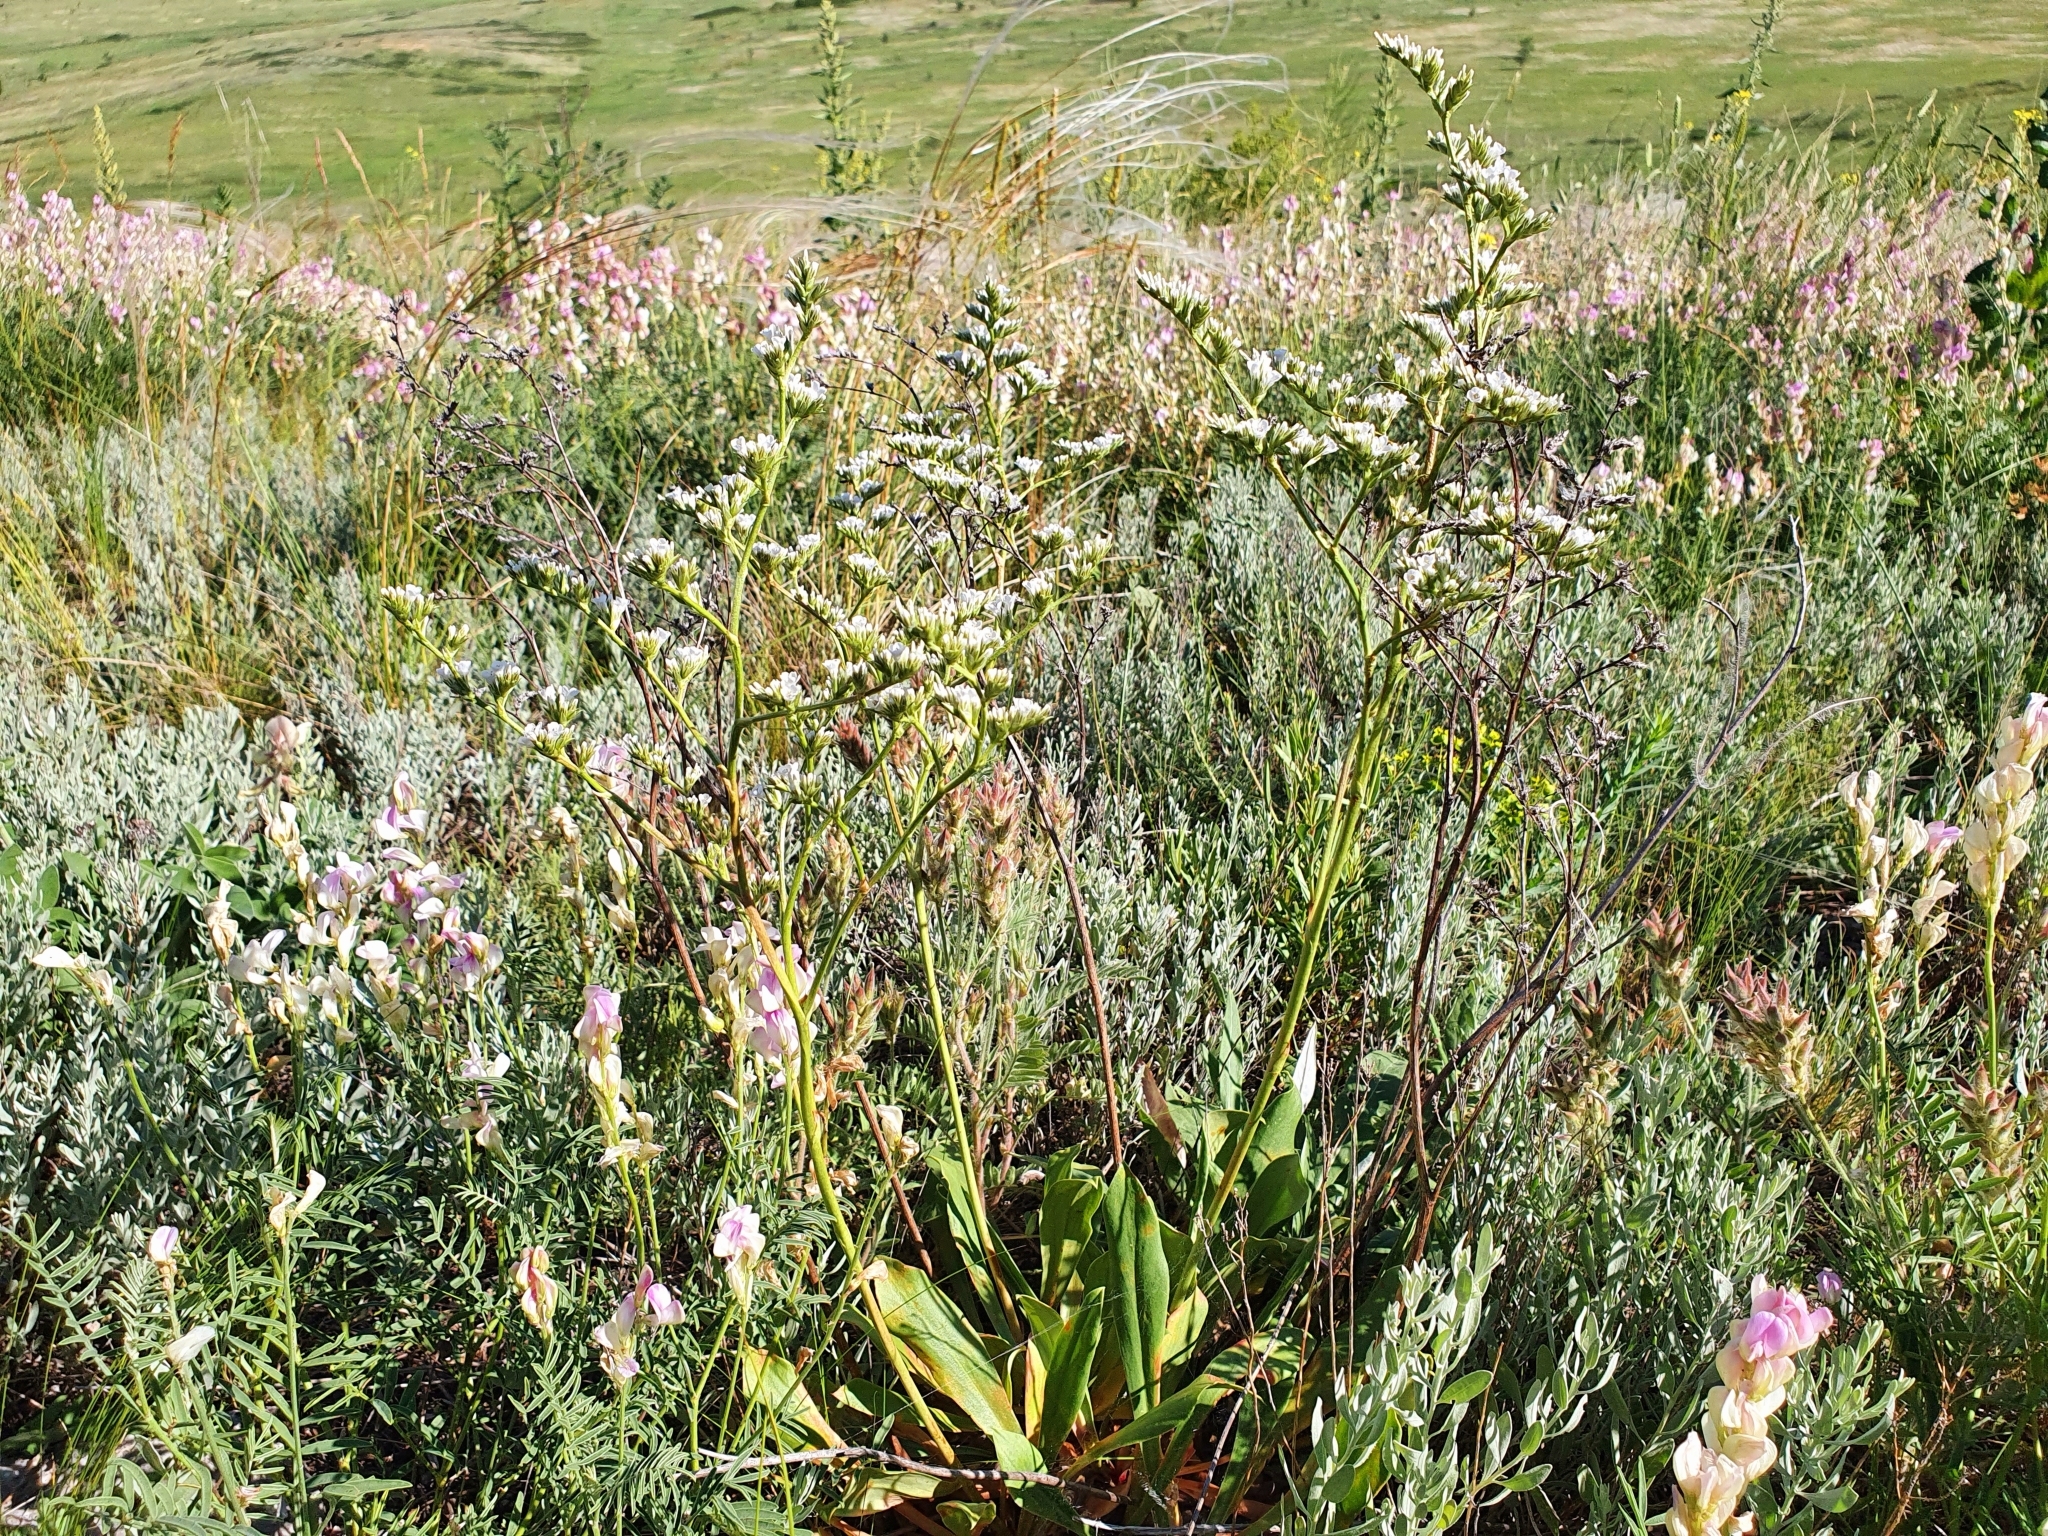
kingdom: Plantae
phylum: Tracheophyta
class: Magnoliopsida
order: Caryophyllales
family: Plumbaginaceae
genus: Goniolimon
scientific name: Goniolimon elatum
